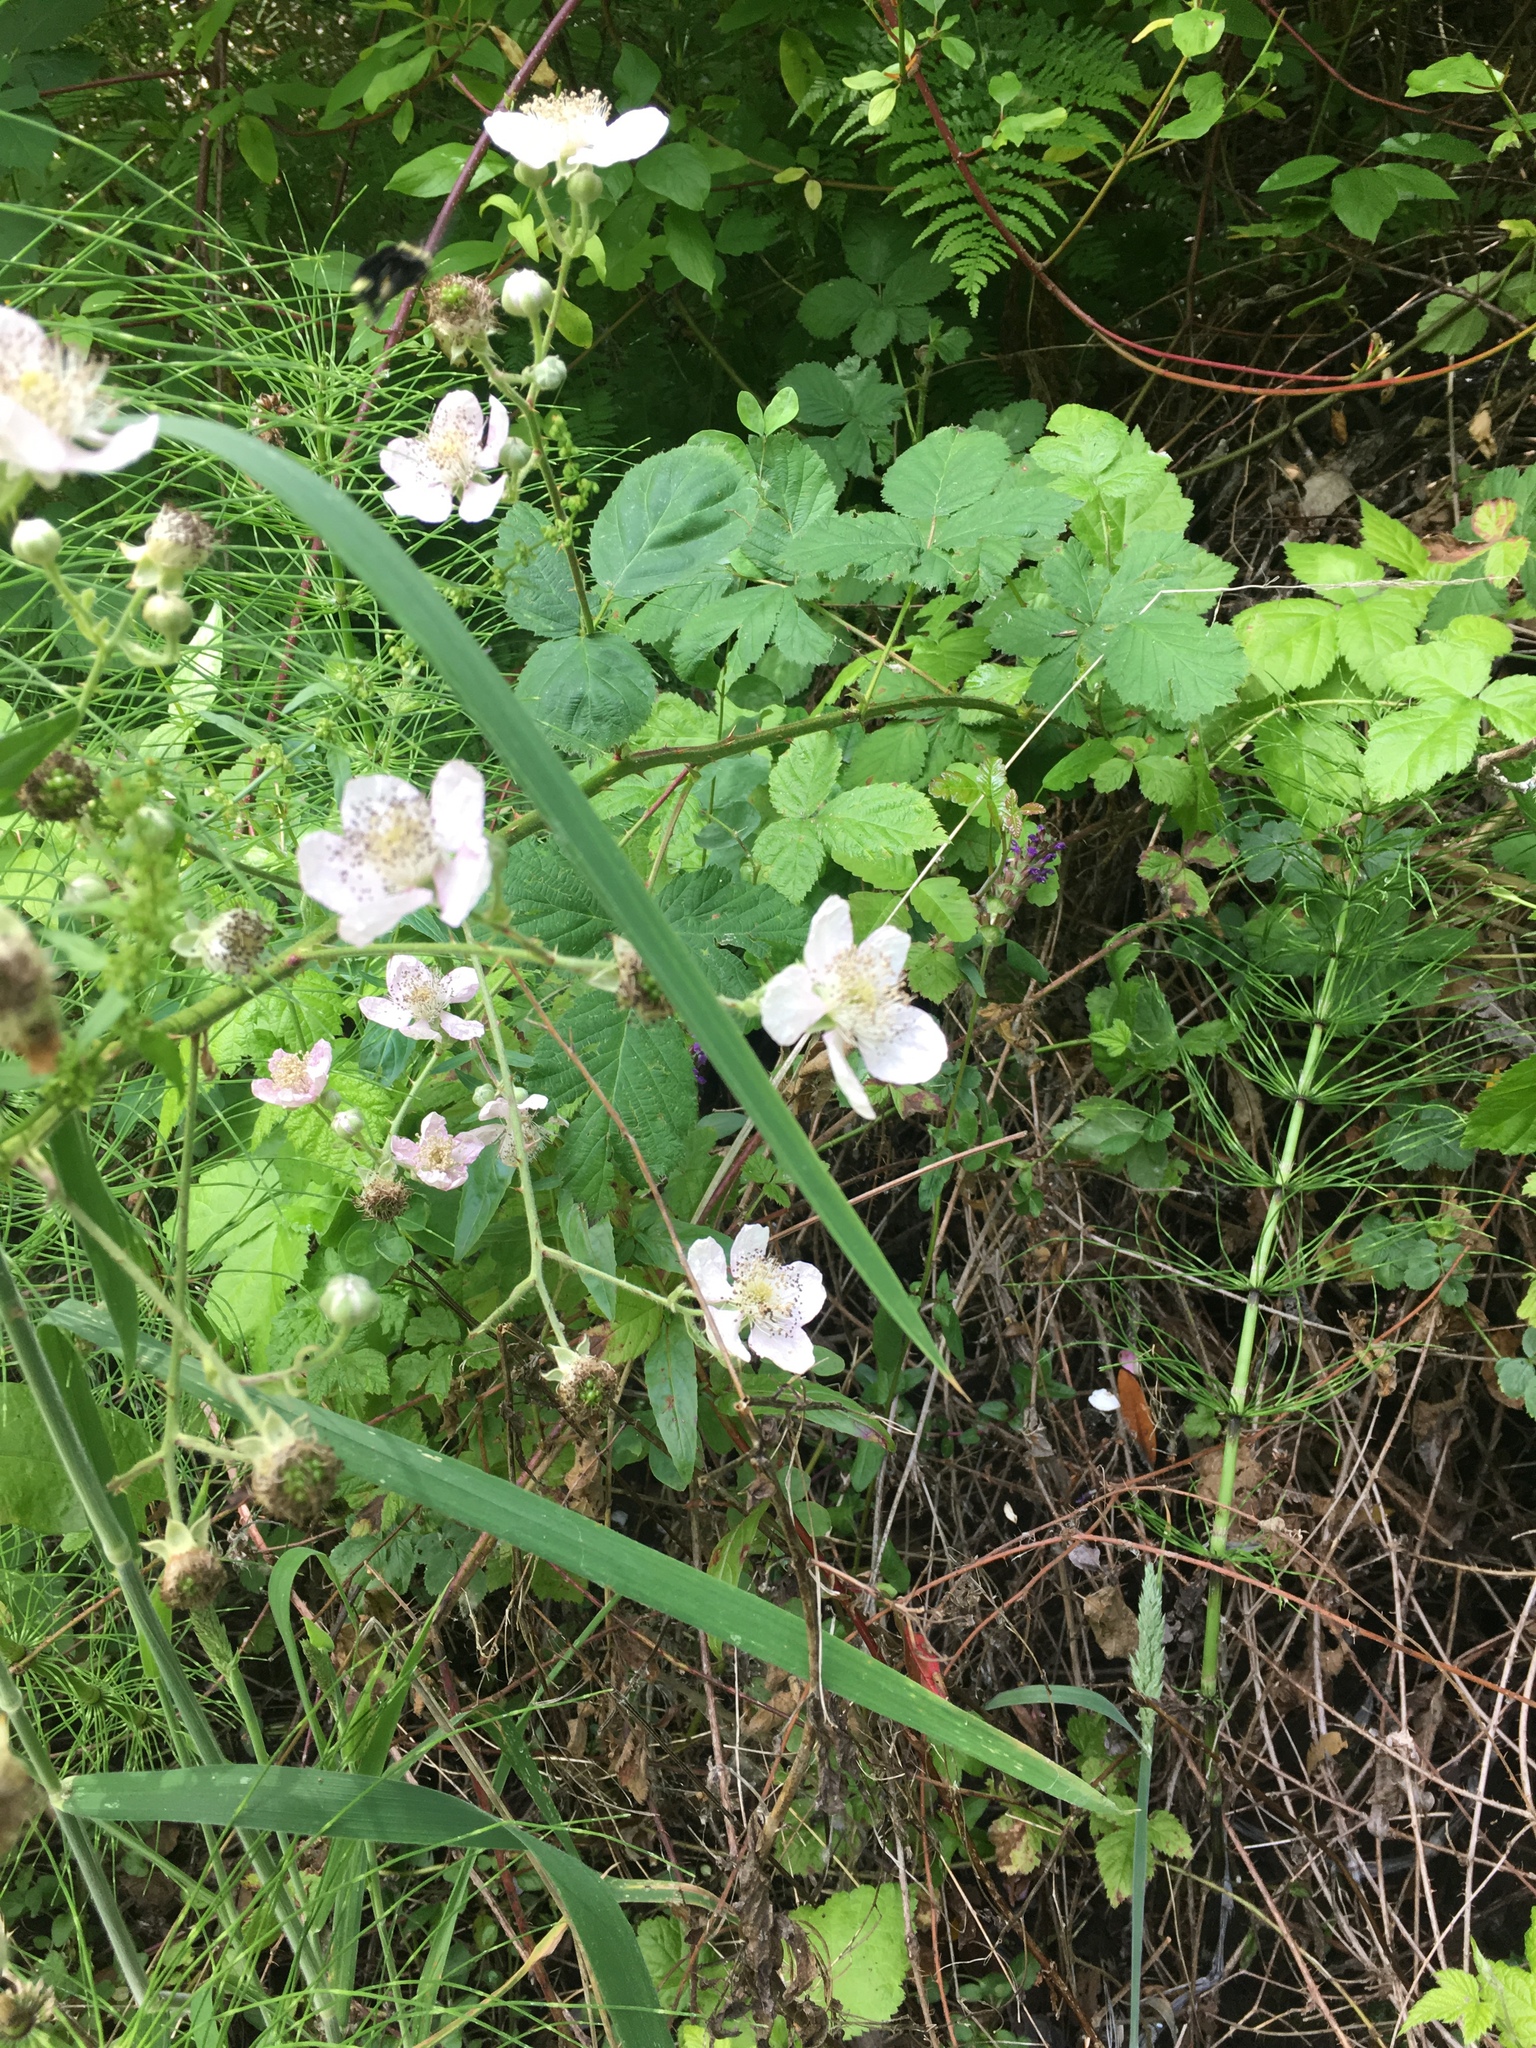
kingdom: Plantae
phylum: Tracheophyta
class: Magnoliopsida
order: Rosales
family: Rosaceae
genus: Rubus
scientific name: Rubus armeniacus
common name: Himalayan blackberry
